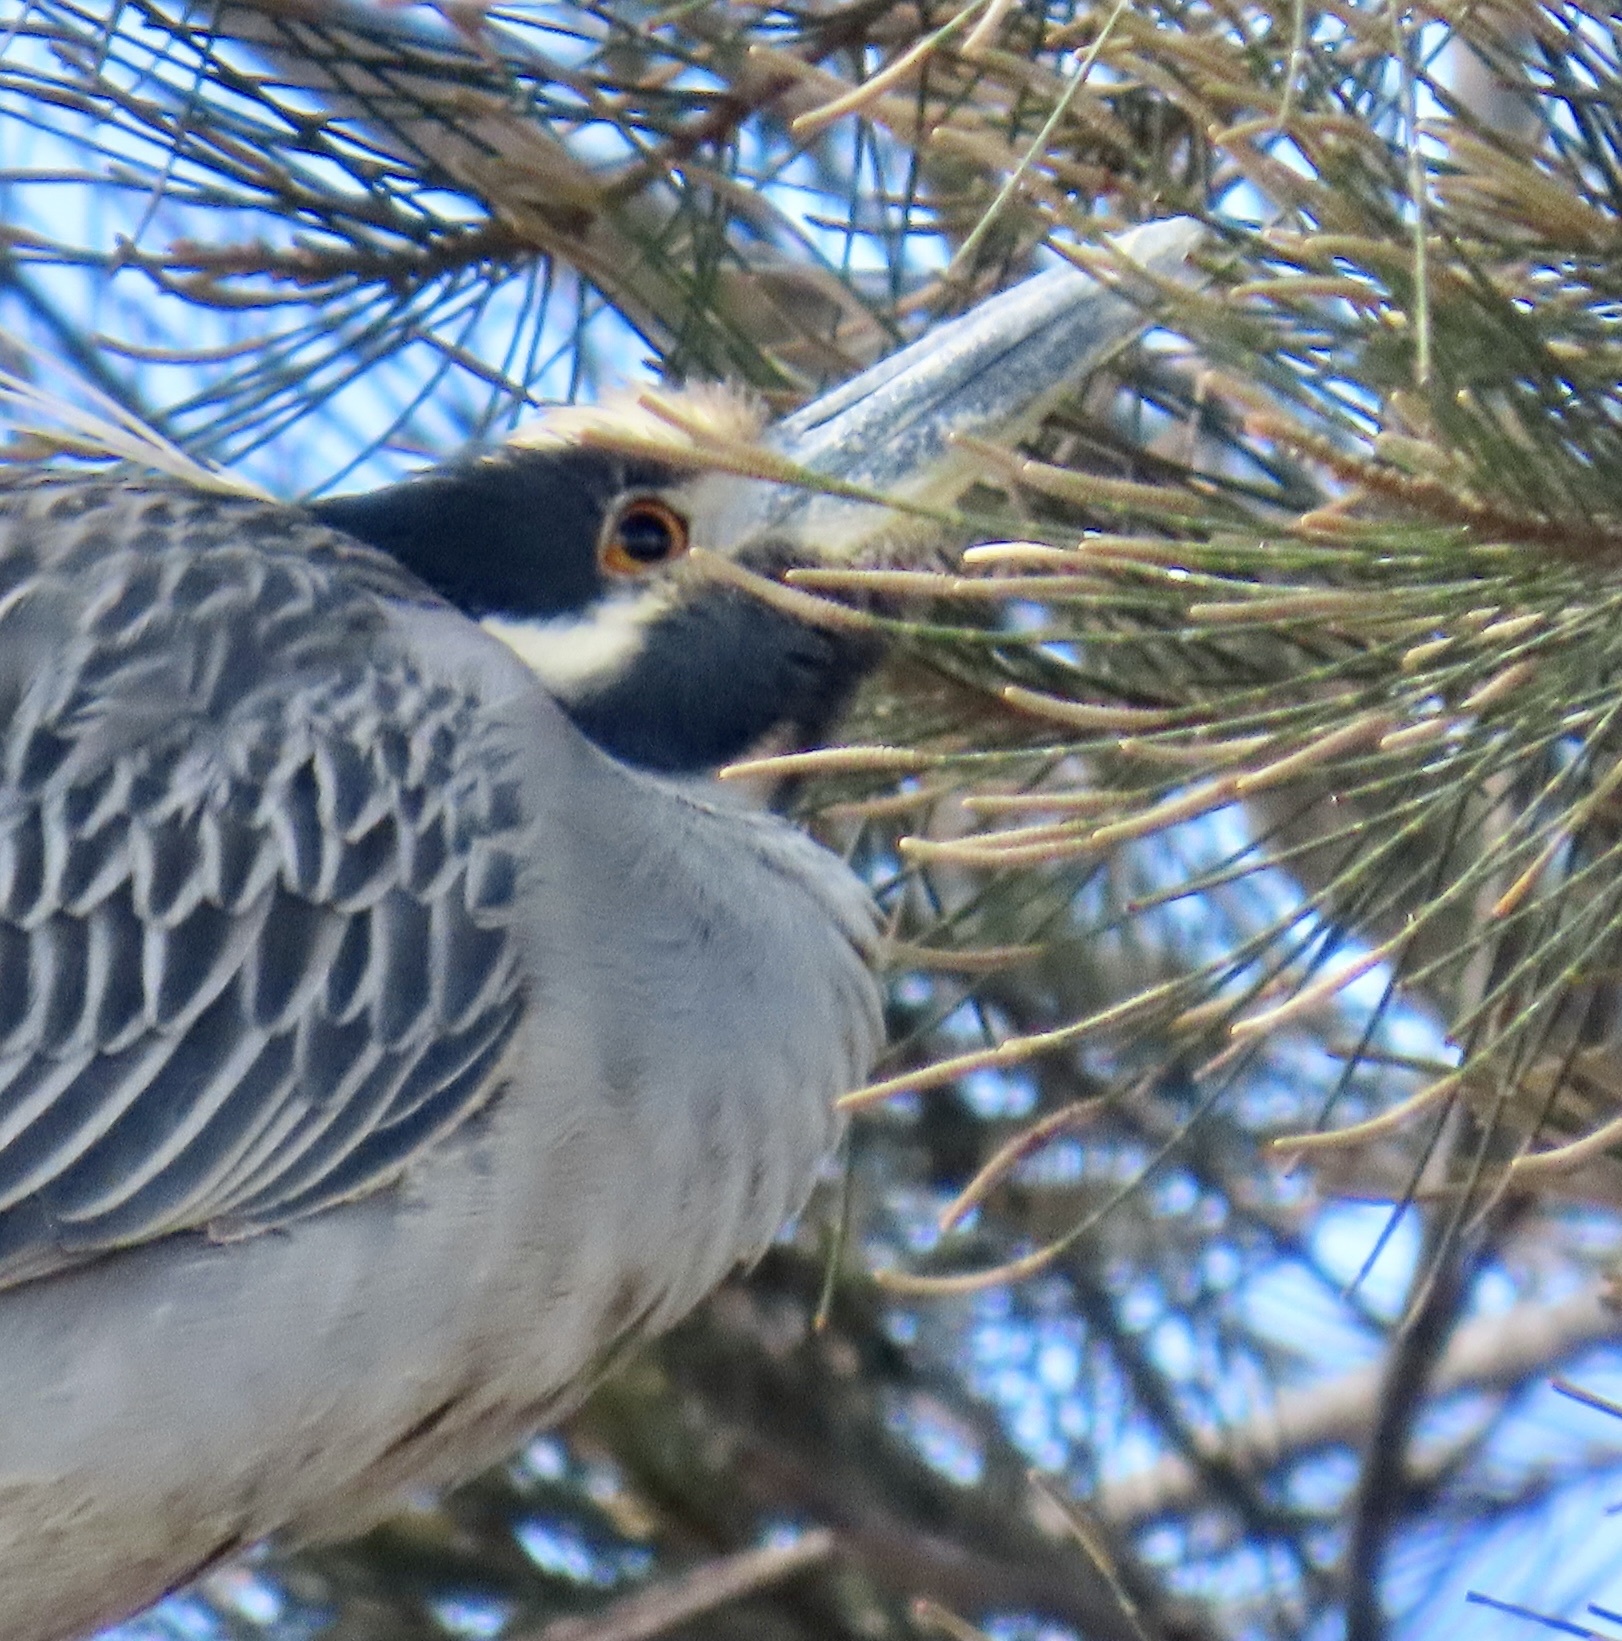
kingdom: Animalia
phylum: Chordata
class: Aves
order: Pelecaniformes
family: Ardeidae
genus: Nyctanassa
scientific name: Nyctanassa violacea
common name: Yellow-crowned night heron
